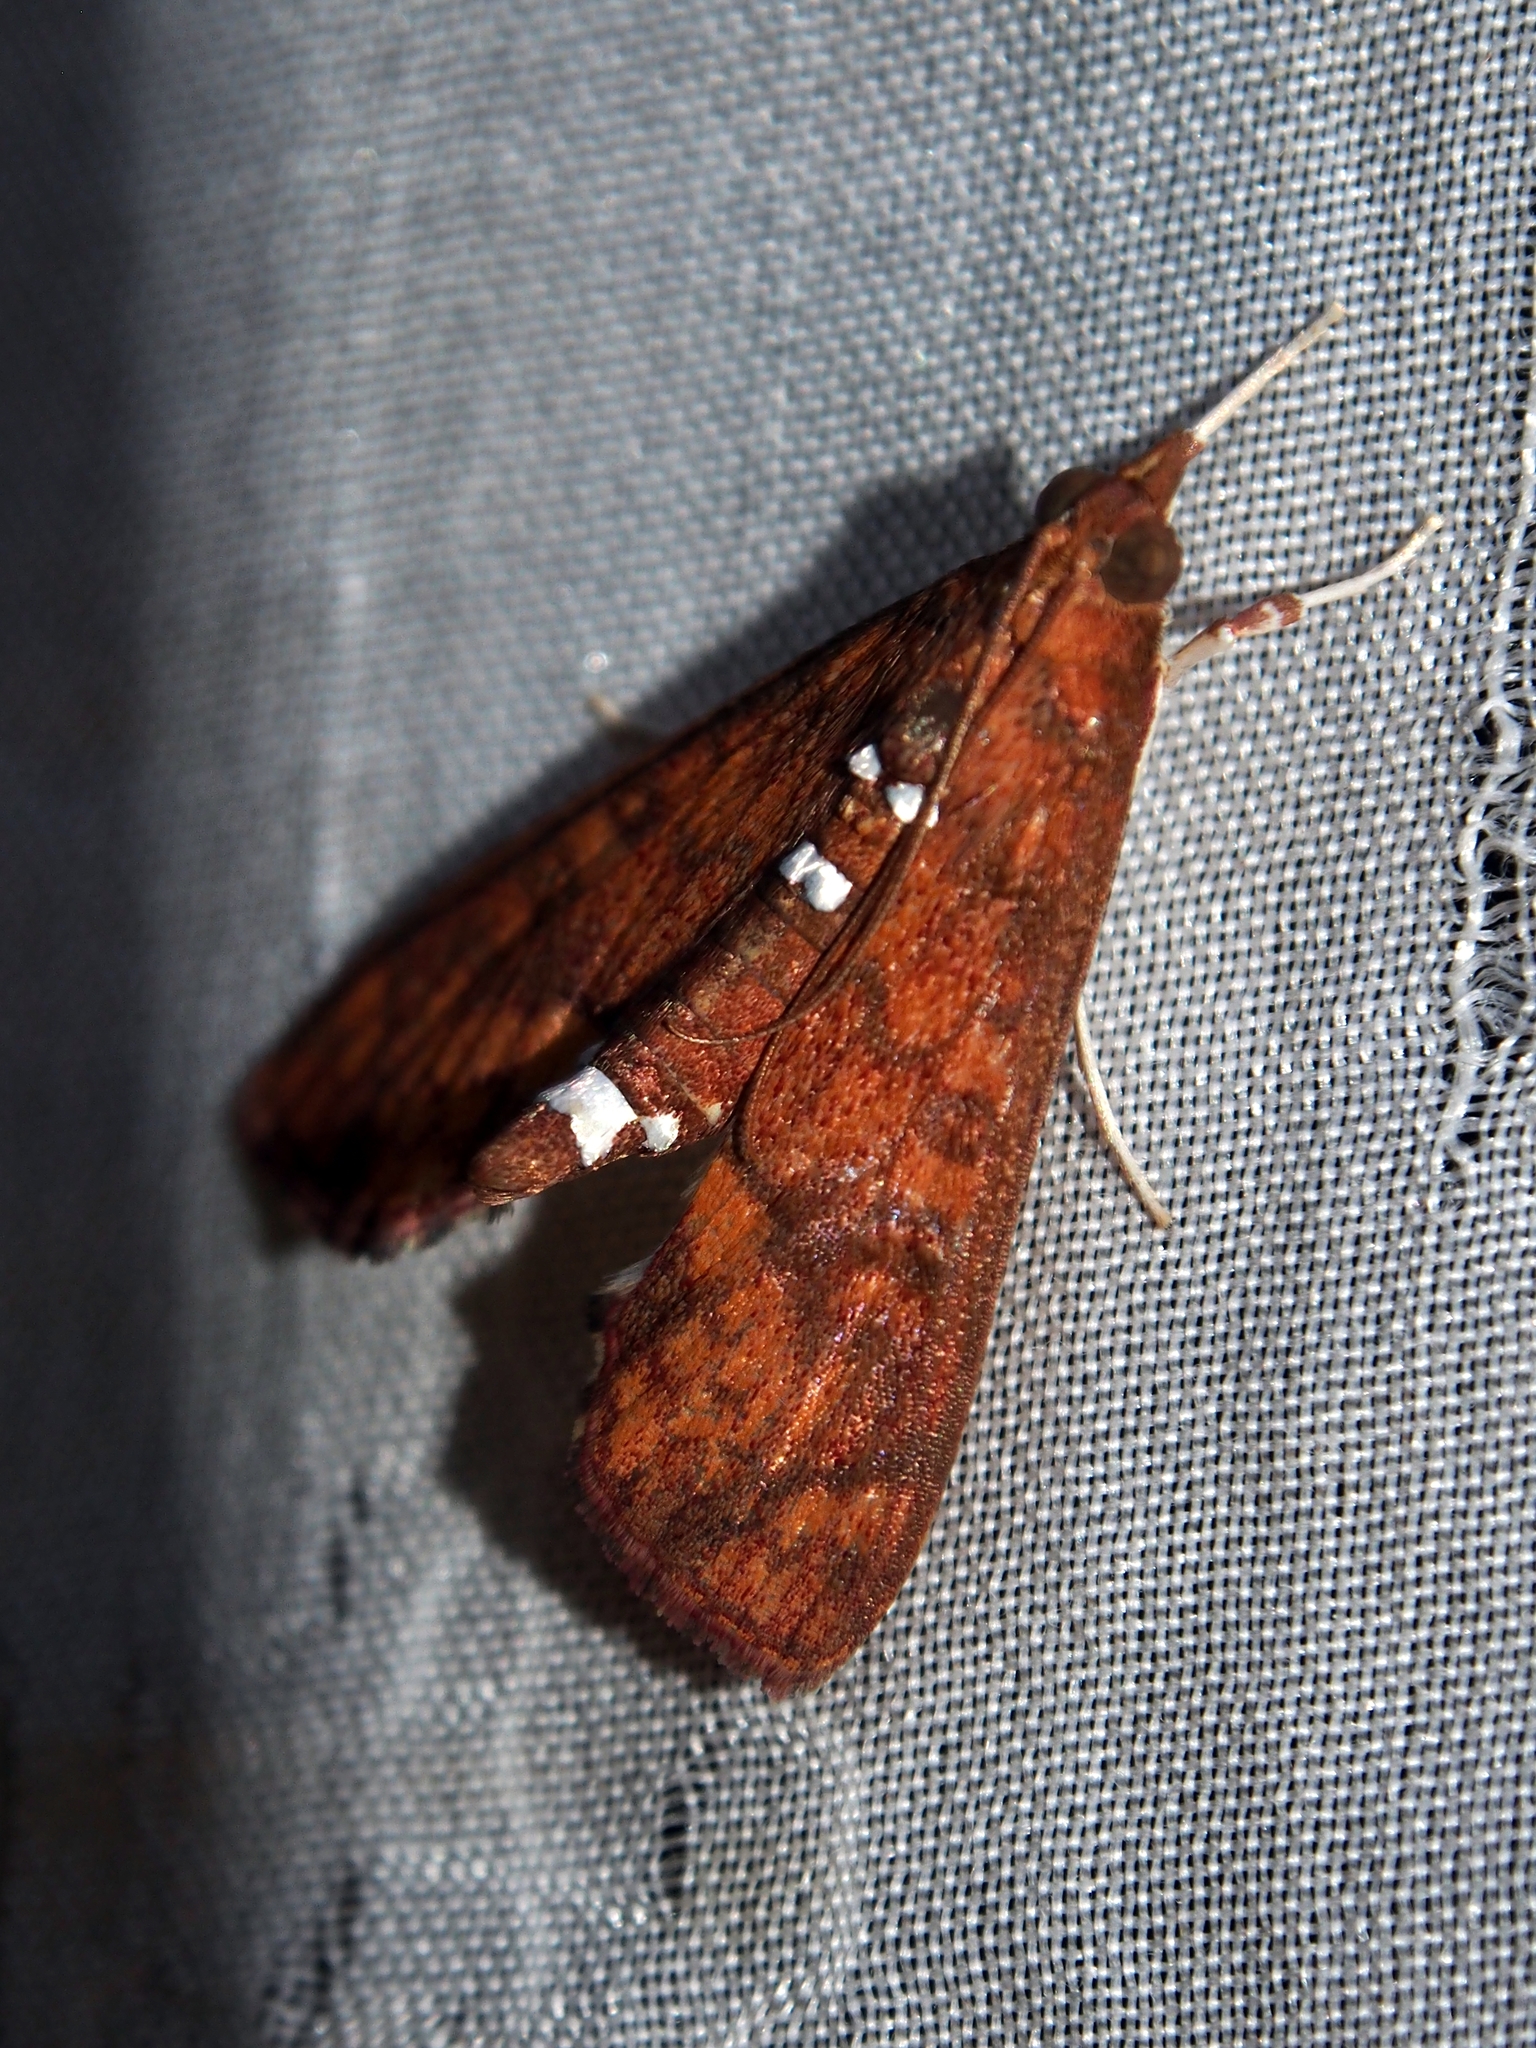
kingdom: Animalia
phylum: Arthropoda
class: Insecta
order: Lepidoptera
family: Crambidae
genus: Liopasia
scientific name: Liopasia ochracealis
